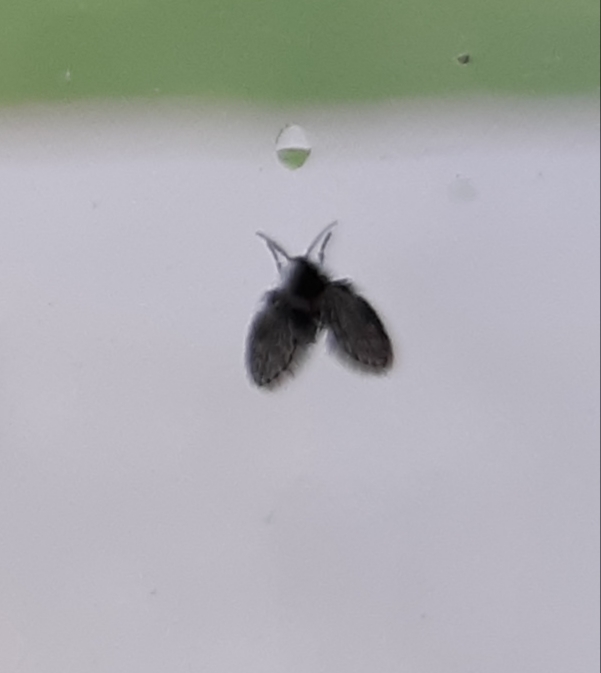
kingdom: Animalia
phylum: Arthropoda
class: Insecta
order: Diptera
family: Psychodidae
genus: Clogmia
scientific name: Clogmia albipunctatus
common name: White-spotted moth fly
